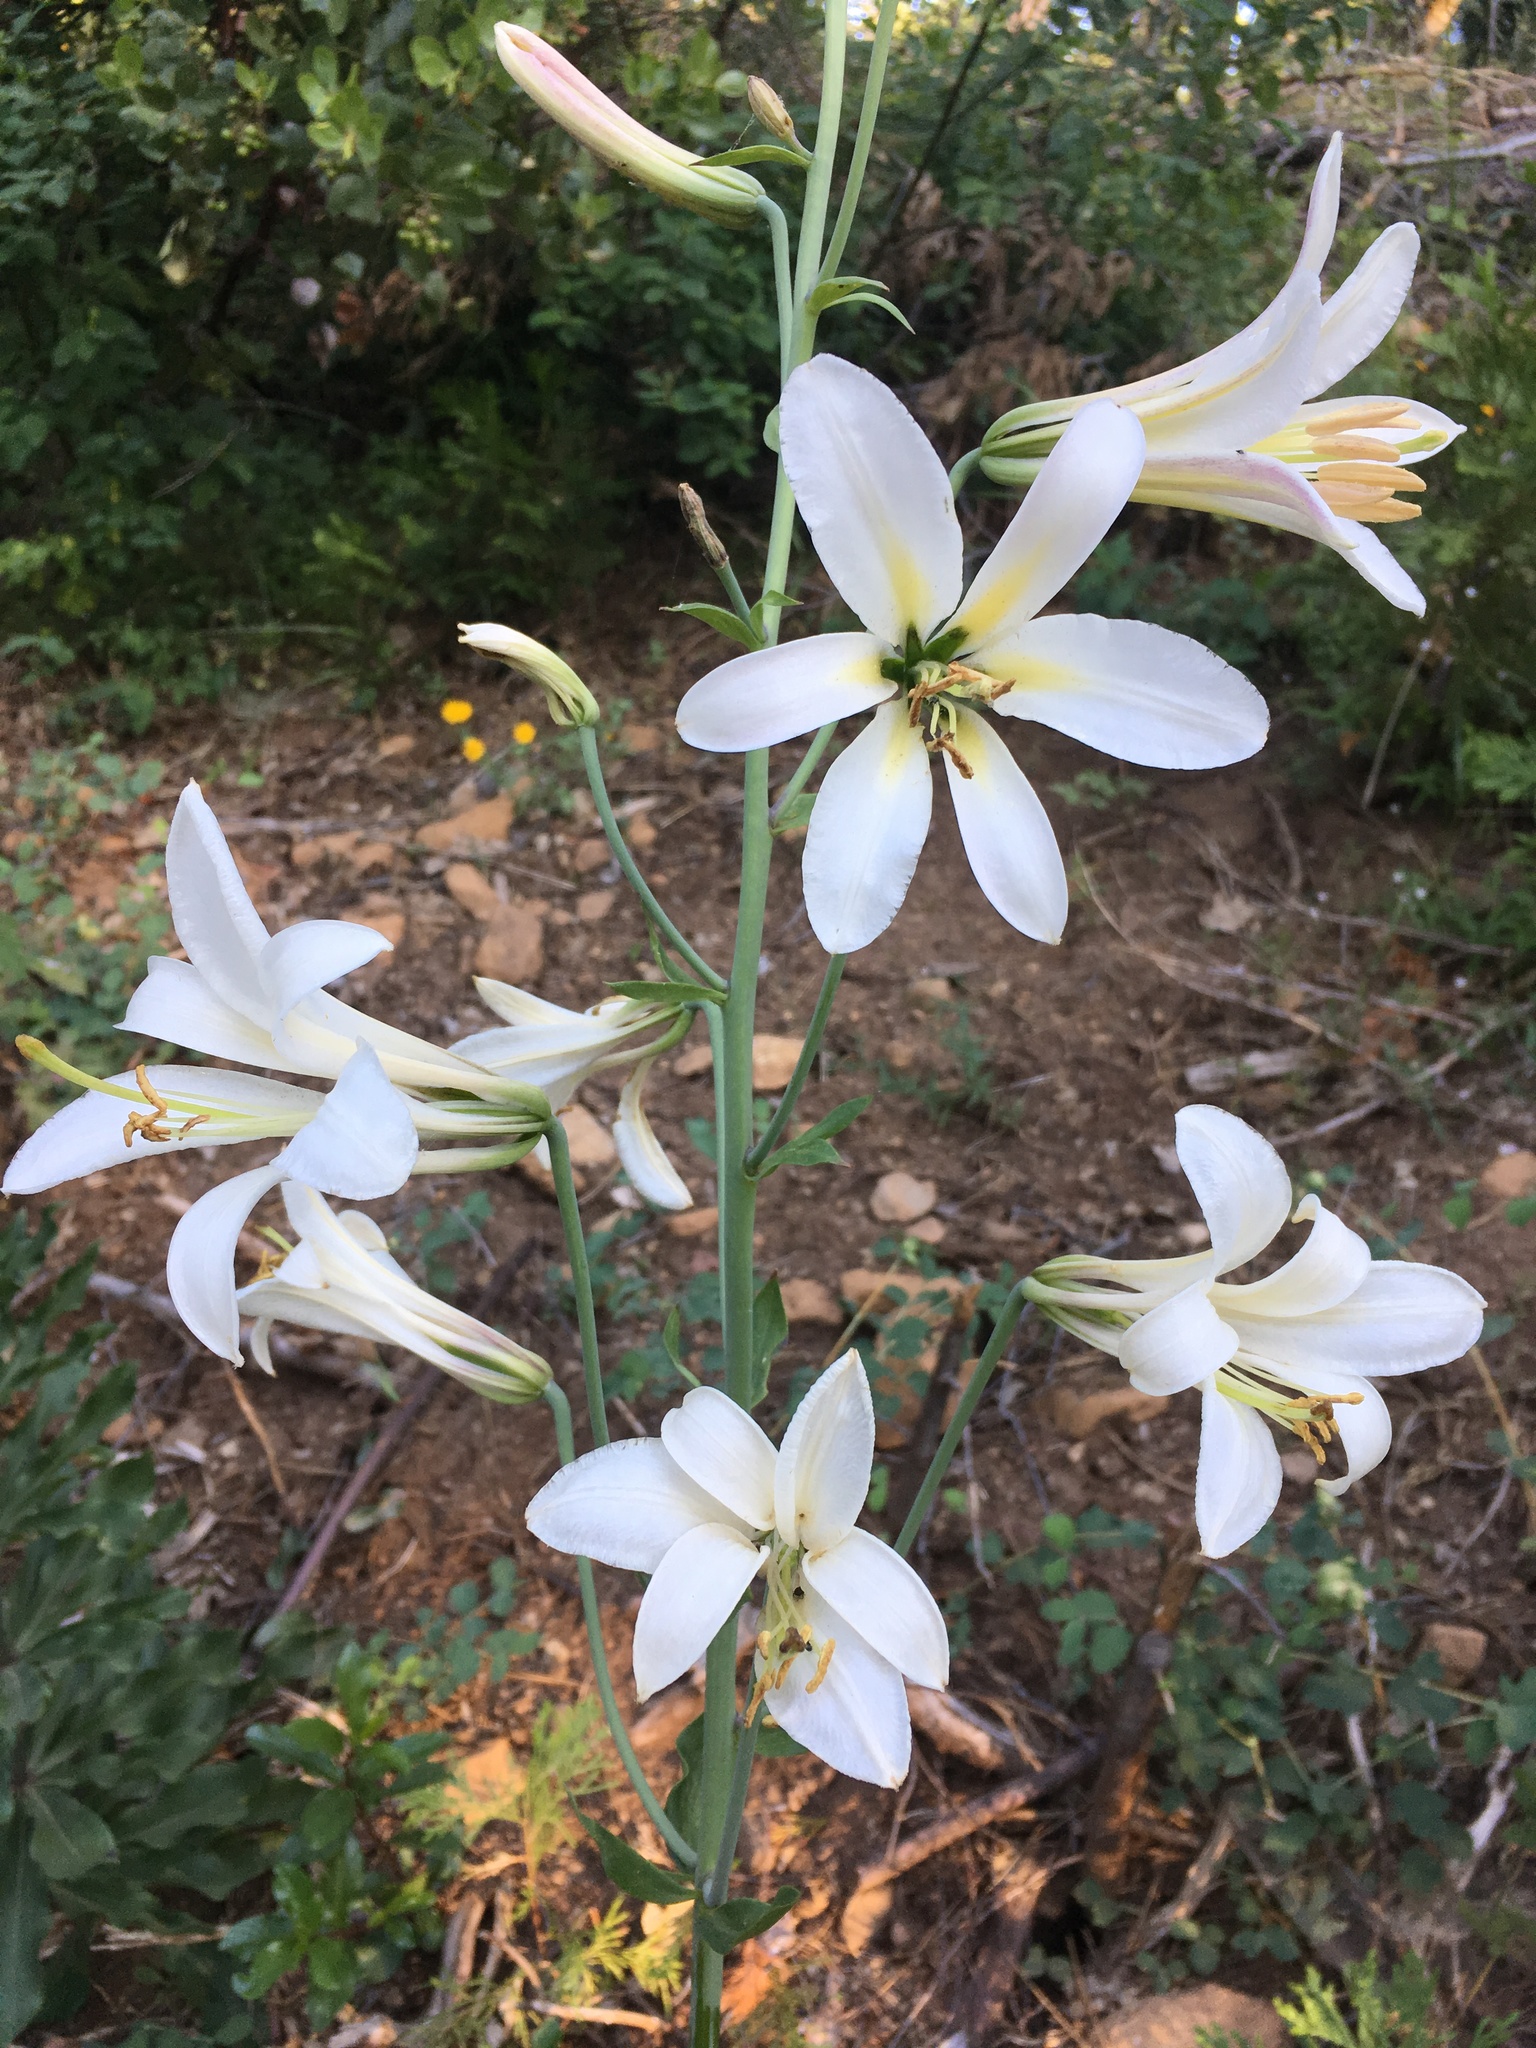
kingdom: Plantae
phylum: Tracheophyta
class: Liliopsida
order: Liliales
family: Liliaceae
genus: Lilium
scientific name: Lilium washingtonianum
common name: Washington lily
